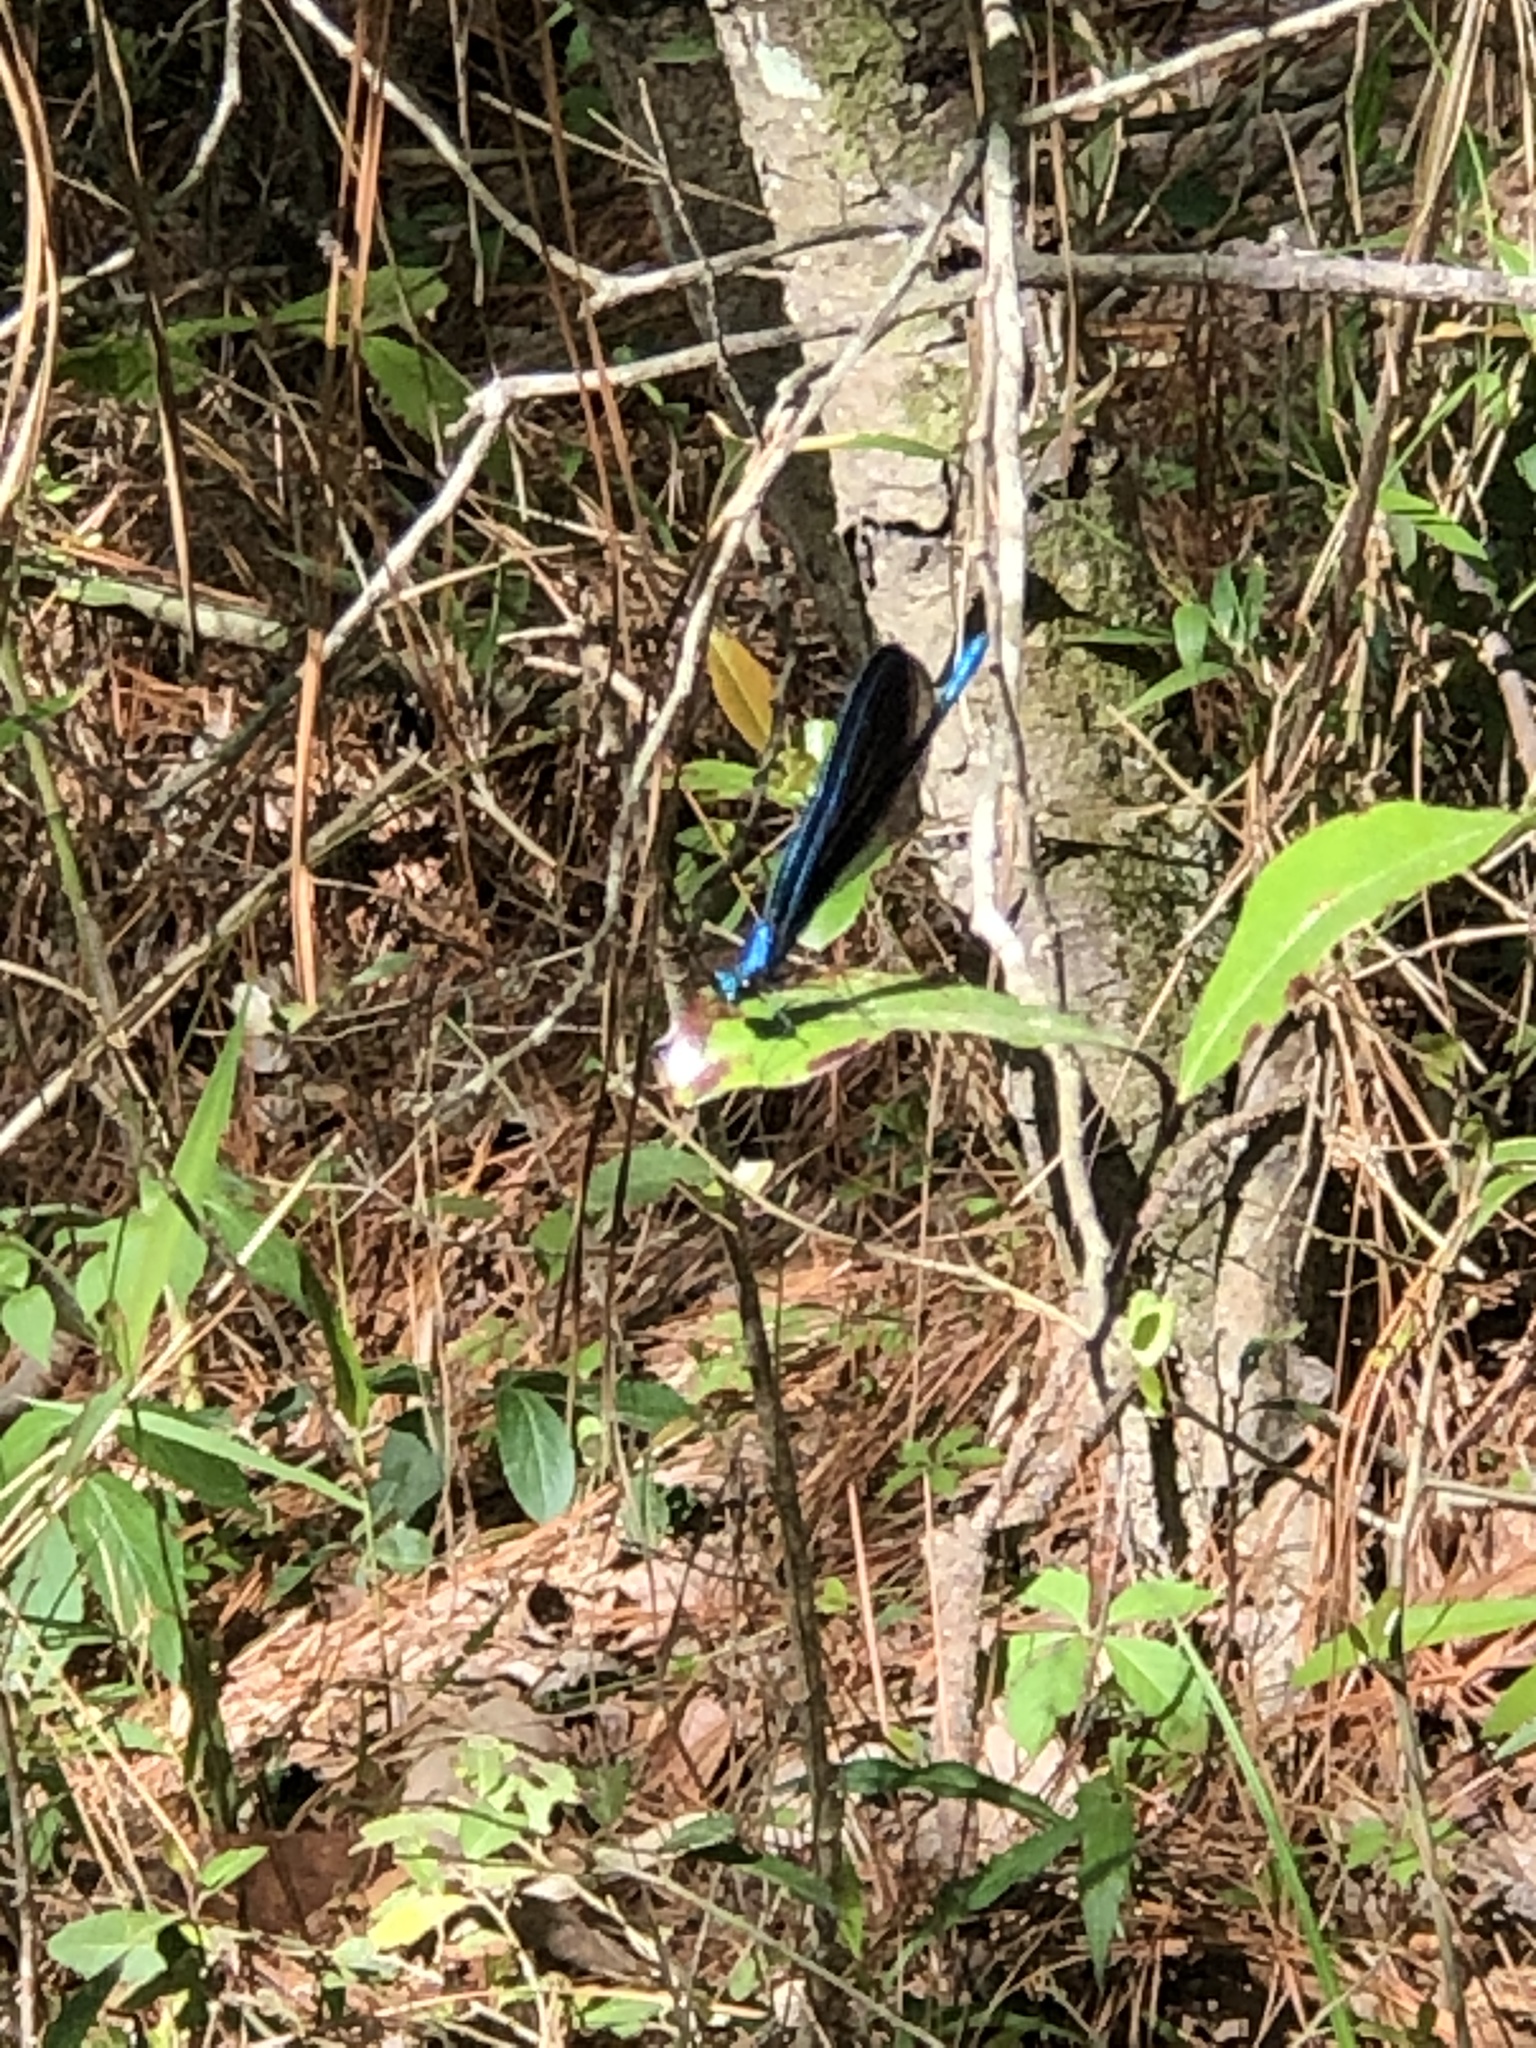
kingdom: Animalia
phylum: Arthropoda
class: Insecta
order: Odonata
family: Calopterygidae
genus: Calopteryx
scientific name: Calopteryx maculata
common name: Ebony jewelwing
